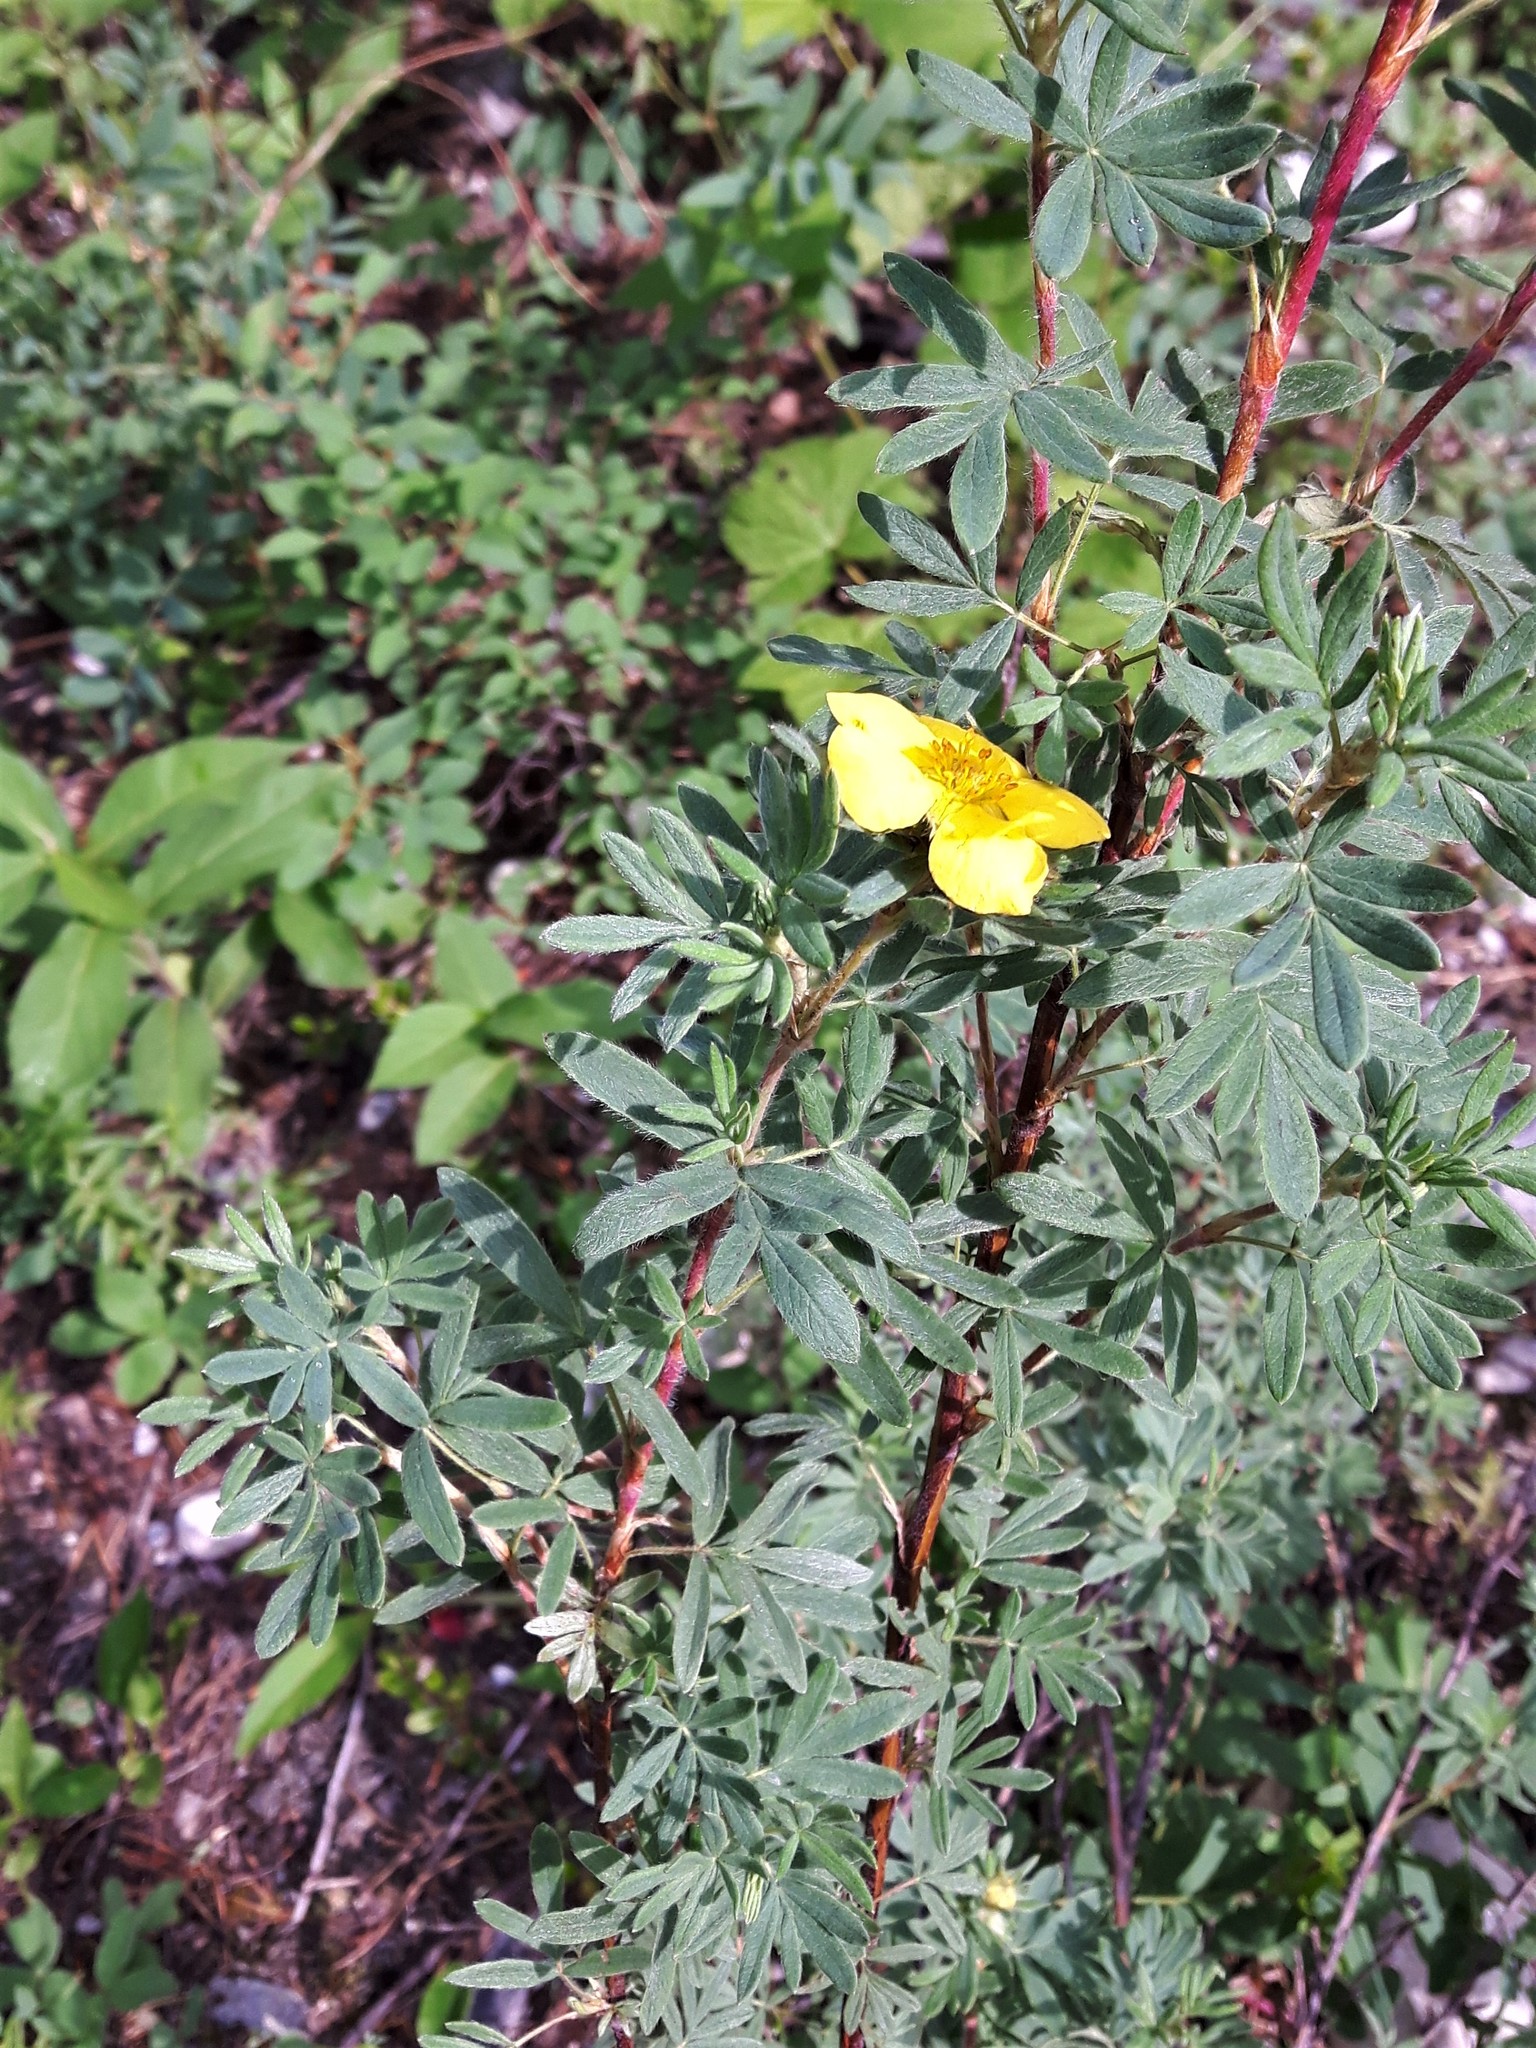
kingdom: Plantae
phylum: Tracheophyta
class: Magnoliopsida
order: Rosales
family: Rosaceae
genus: Dasiphora
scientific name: Dasiphora fruticosa
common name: Shrubby cinquefoil
